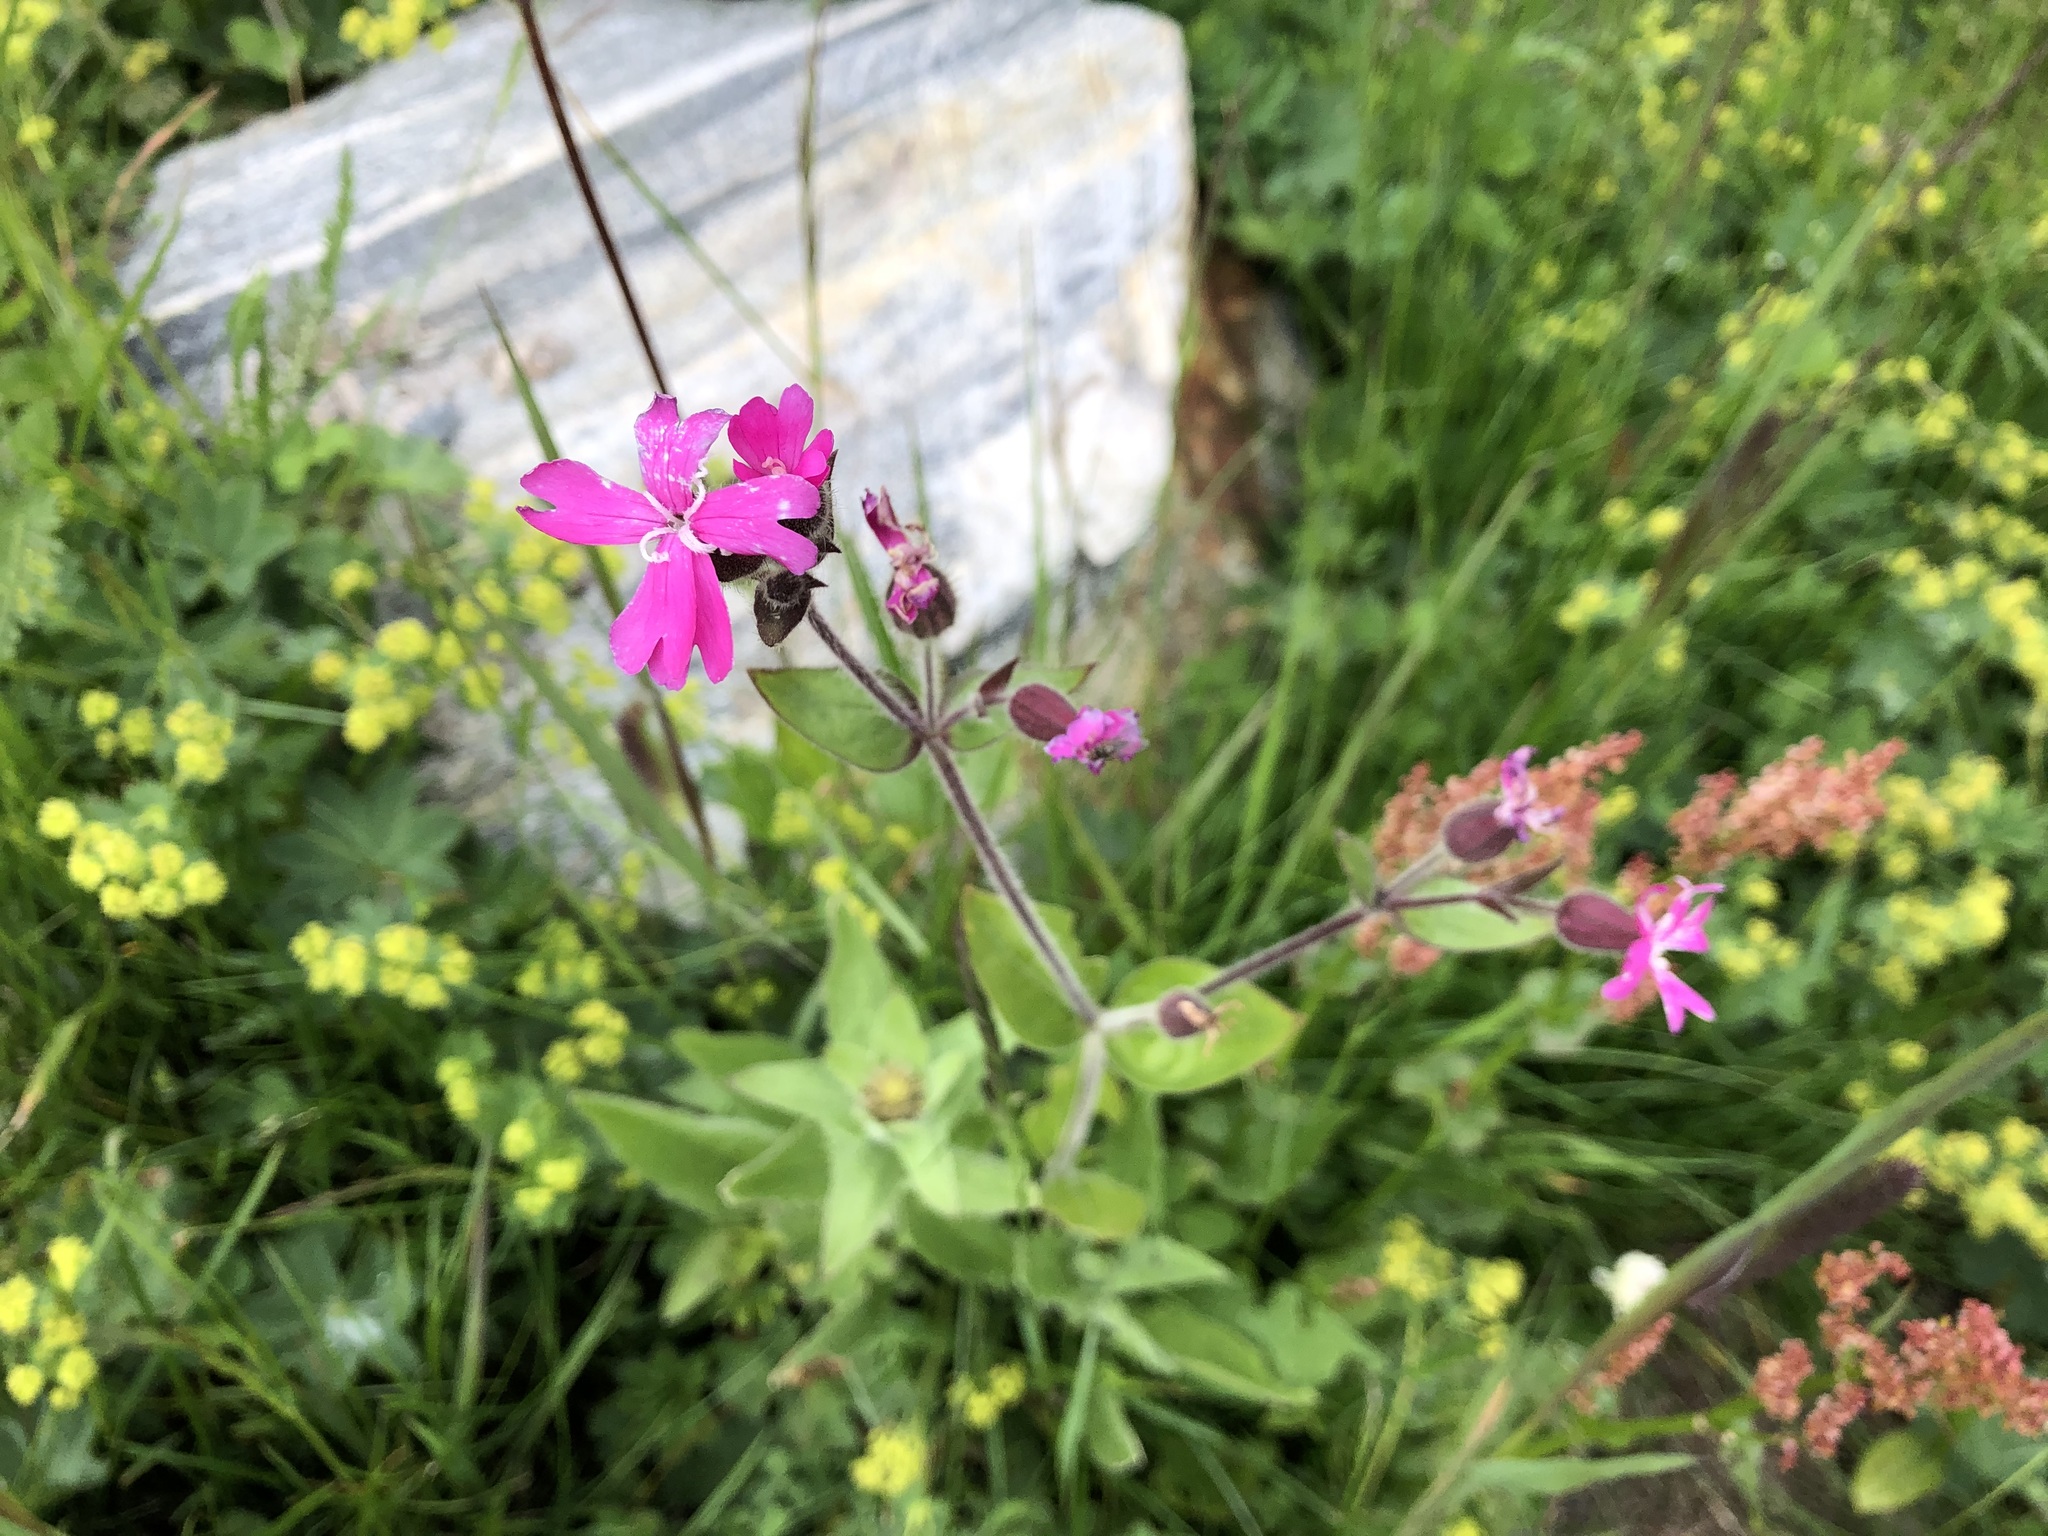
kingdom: Plantae
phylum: Tracheophyta
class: Magnoliopsida
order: Caryophyllales
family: Caryophyllaceae
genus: Silene
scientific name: Silene dioica
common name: Red campion
